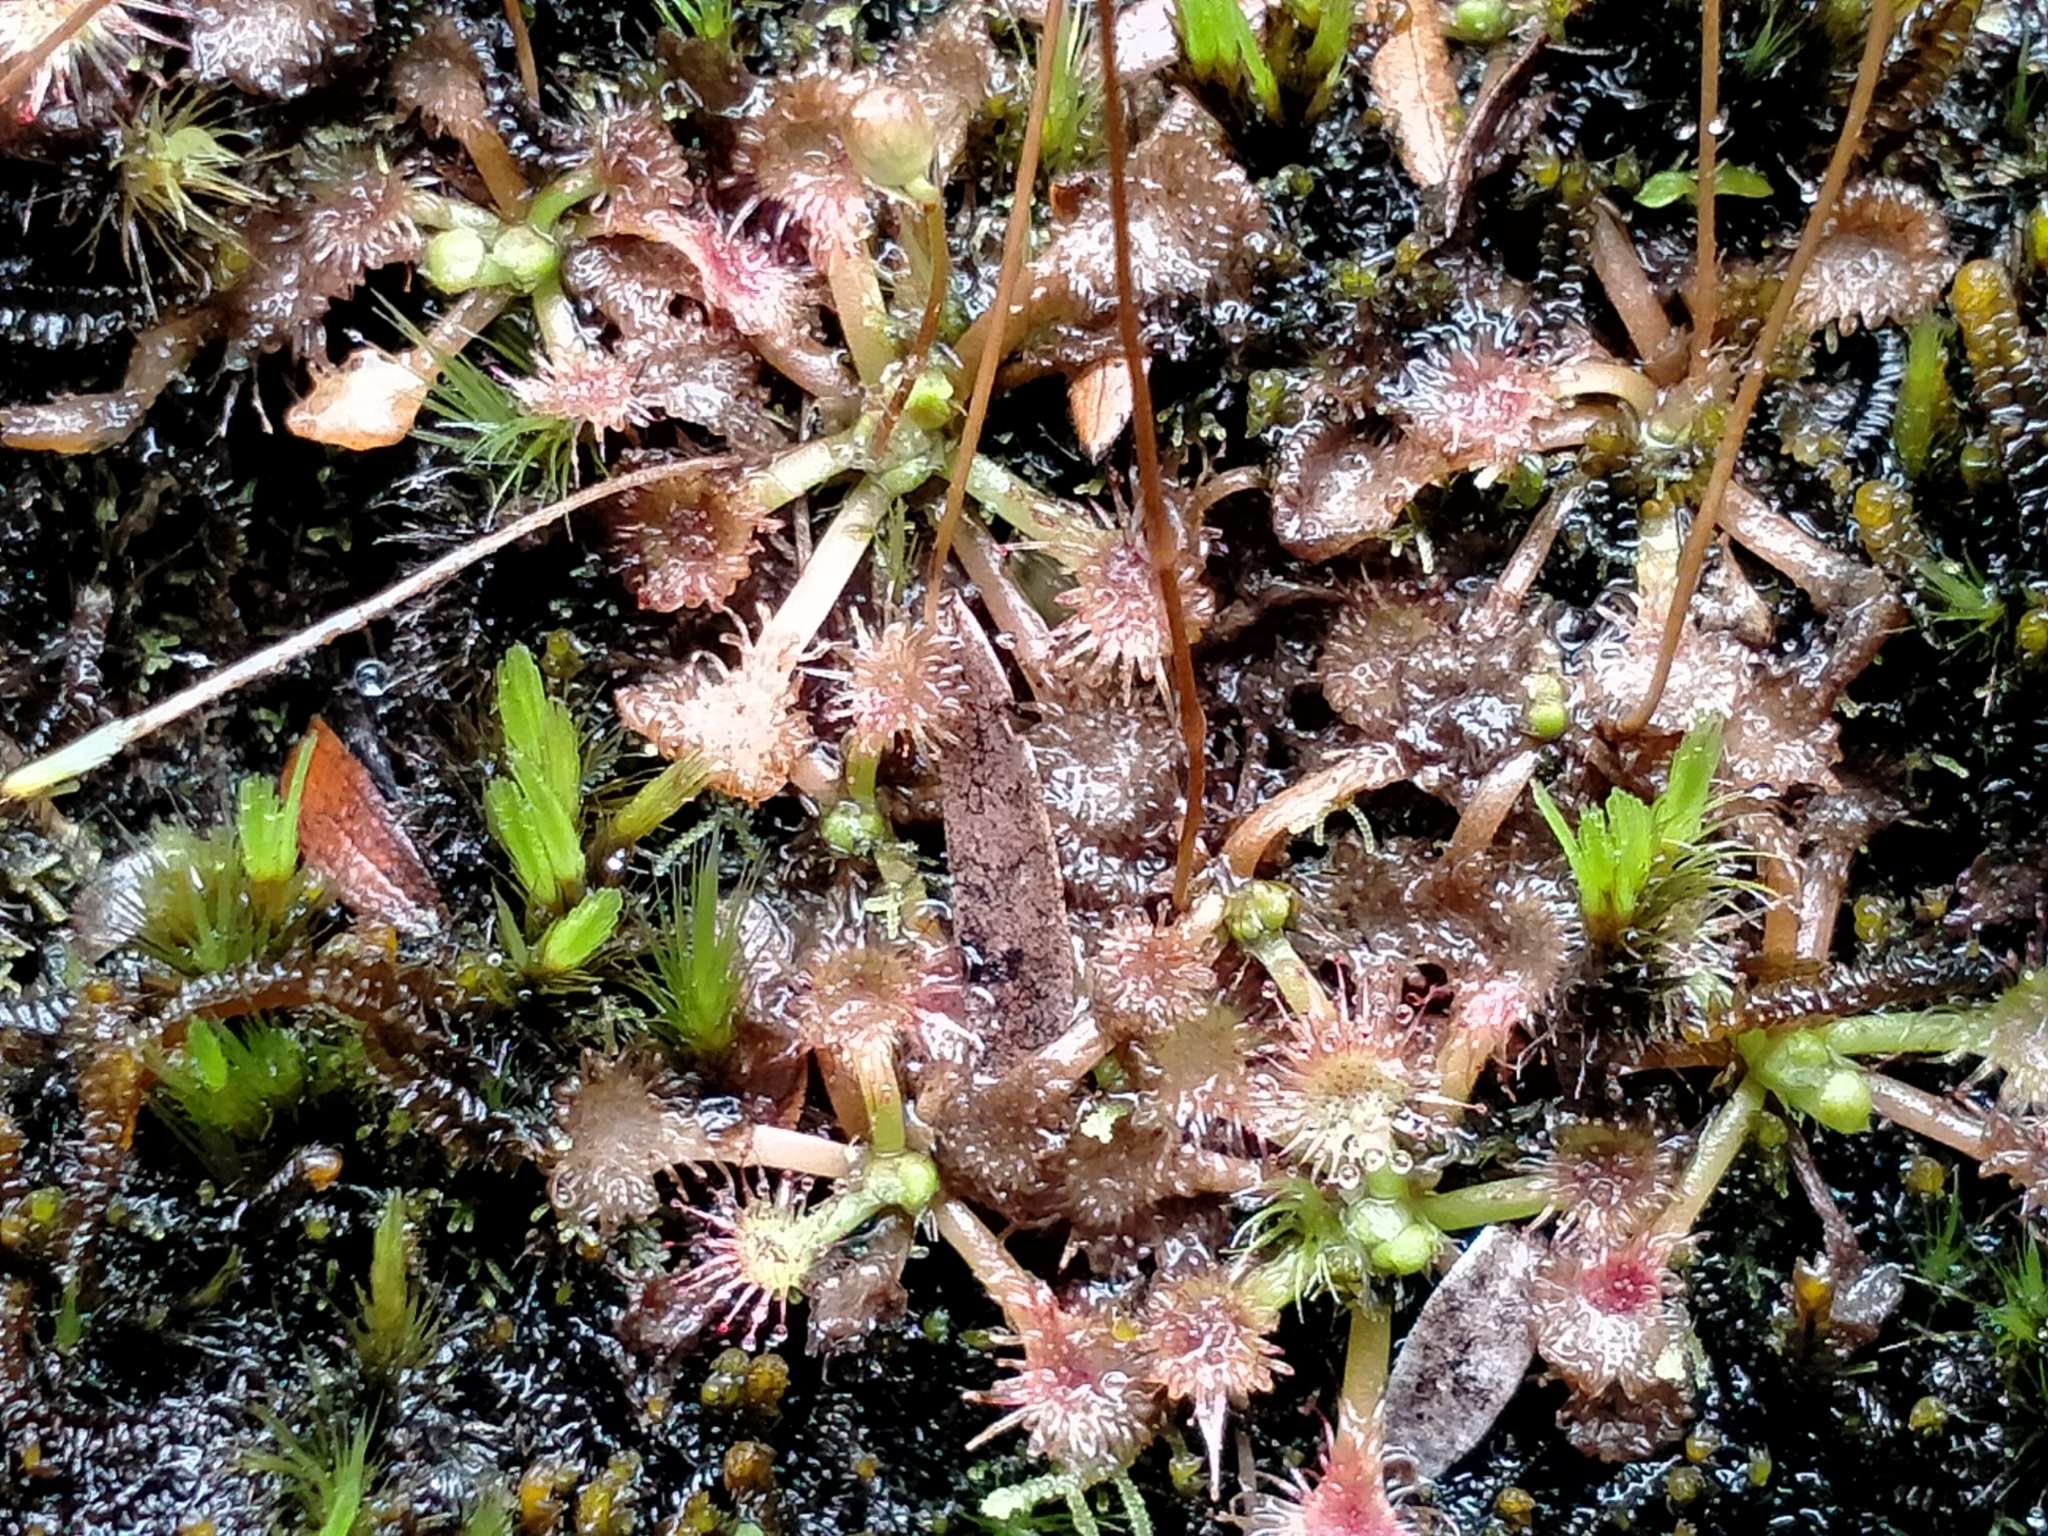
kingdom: Plantae
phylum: Tracheophyta
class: Magnoliopsida
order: Caryophyllales
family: Droseraceae
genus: Drosera
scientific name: Drosera spatulata
